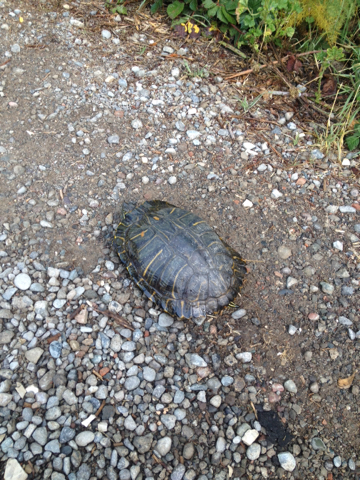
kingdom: Animalia
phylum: Chordata
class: Testudines
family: Emydidae
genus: Trachemys
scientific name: Trachemys scripta
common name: Slider
